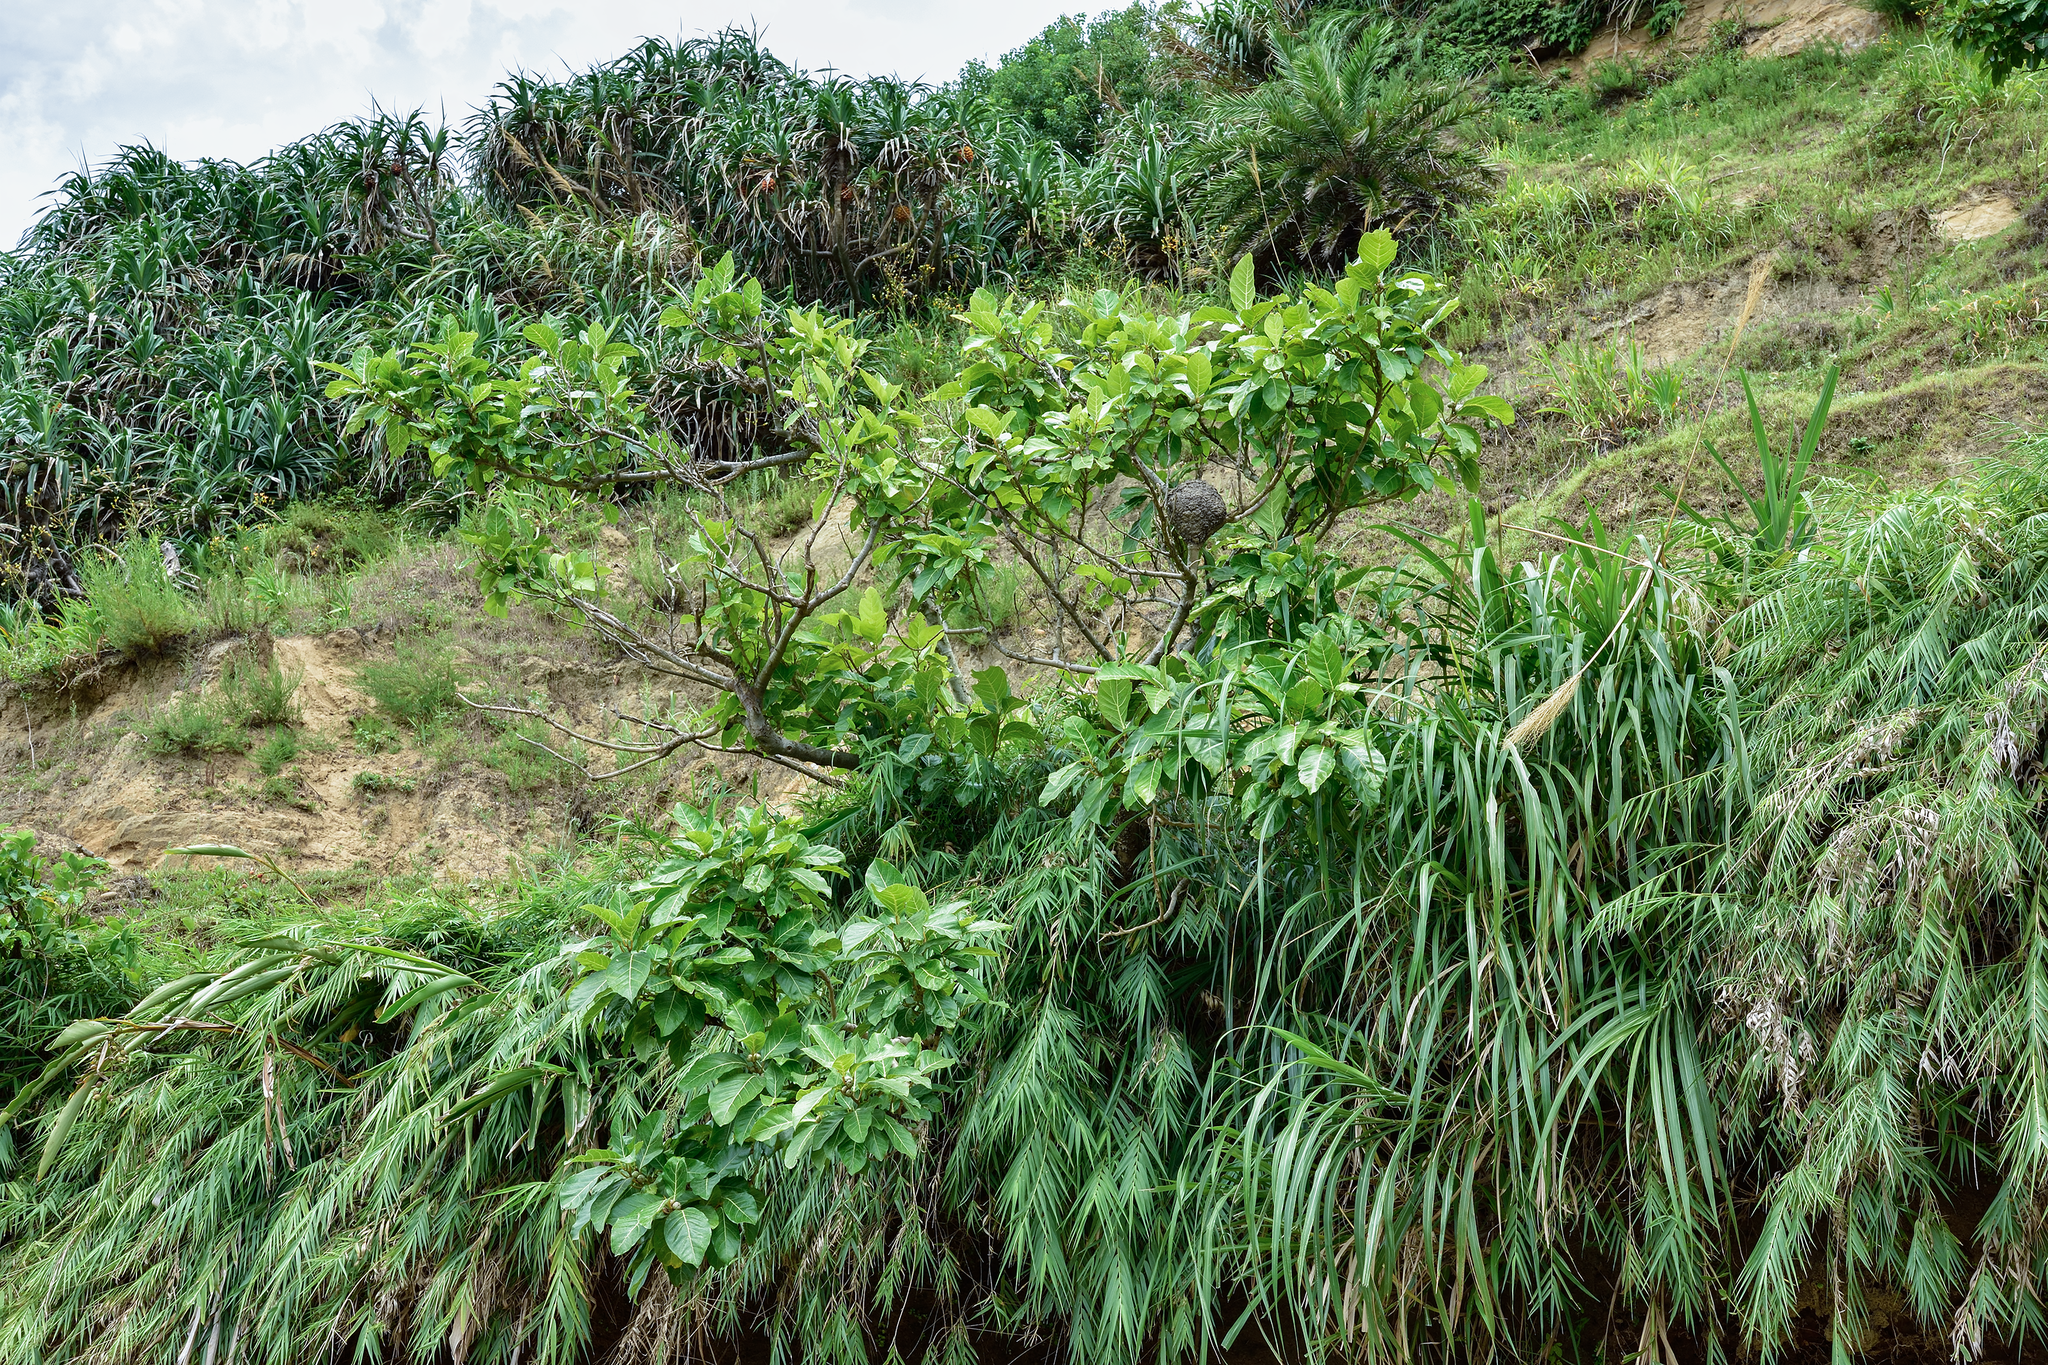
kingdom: Plantae
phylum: Tracheophyta
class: Magnoliopsida
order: Rosales
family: Moraceae
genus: Ficus
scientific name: Ficus septica
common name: Septic fig
